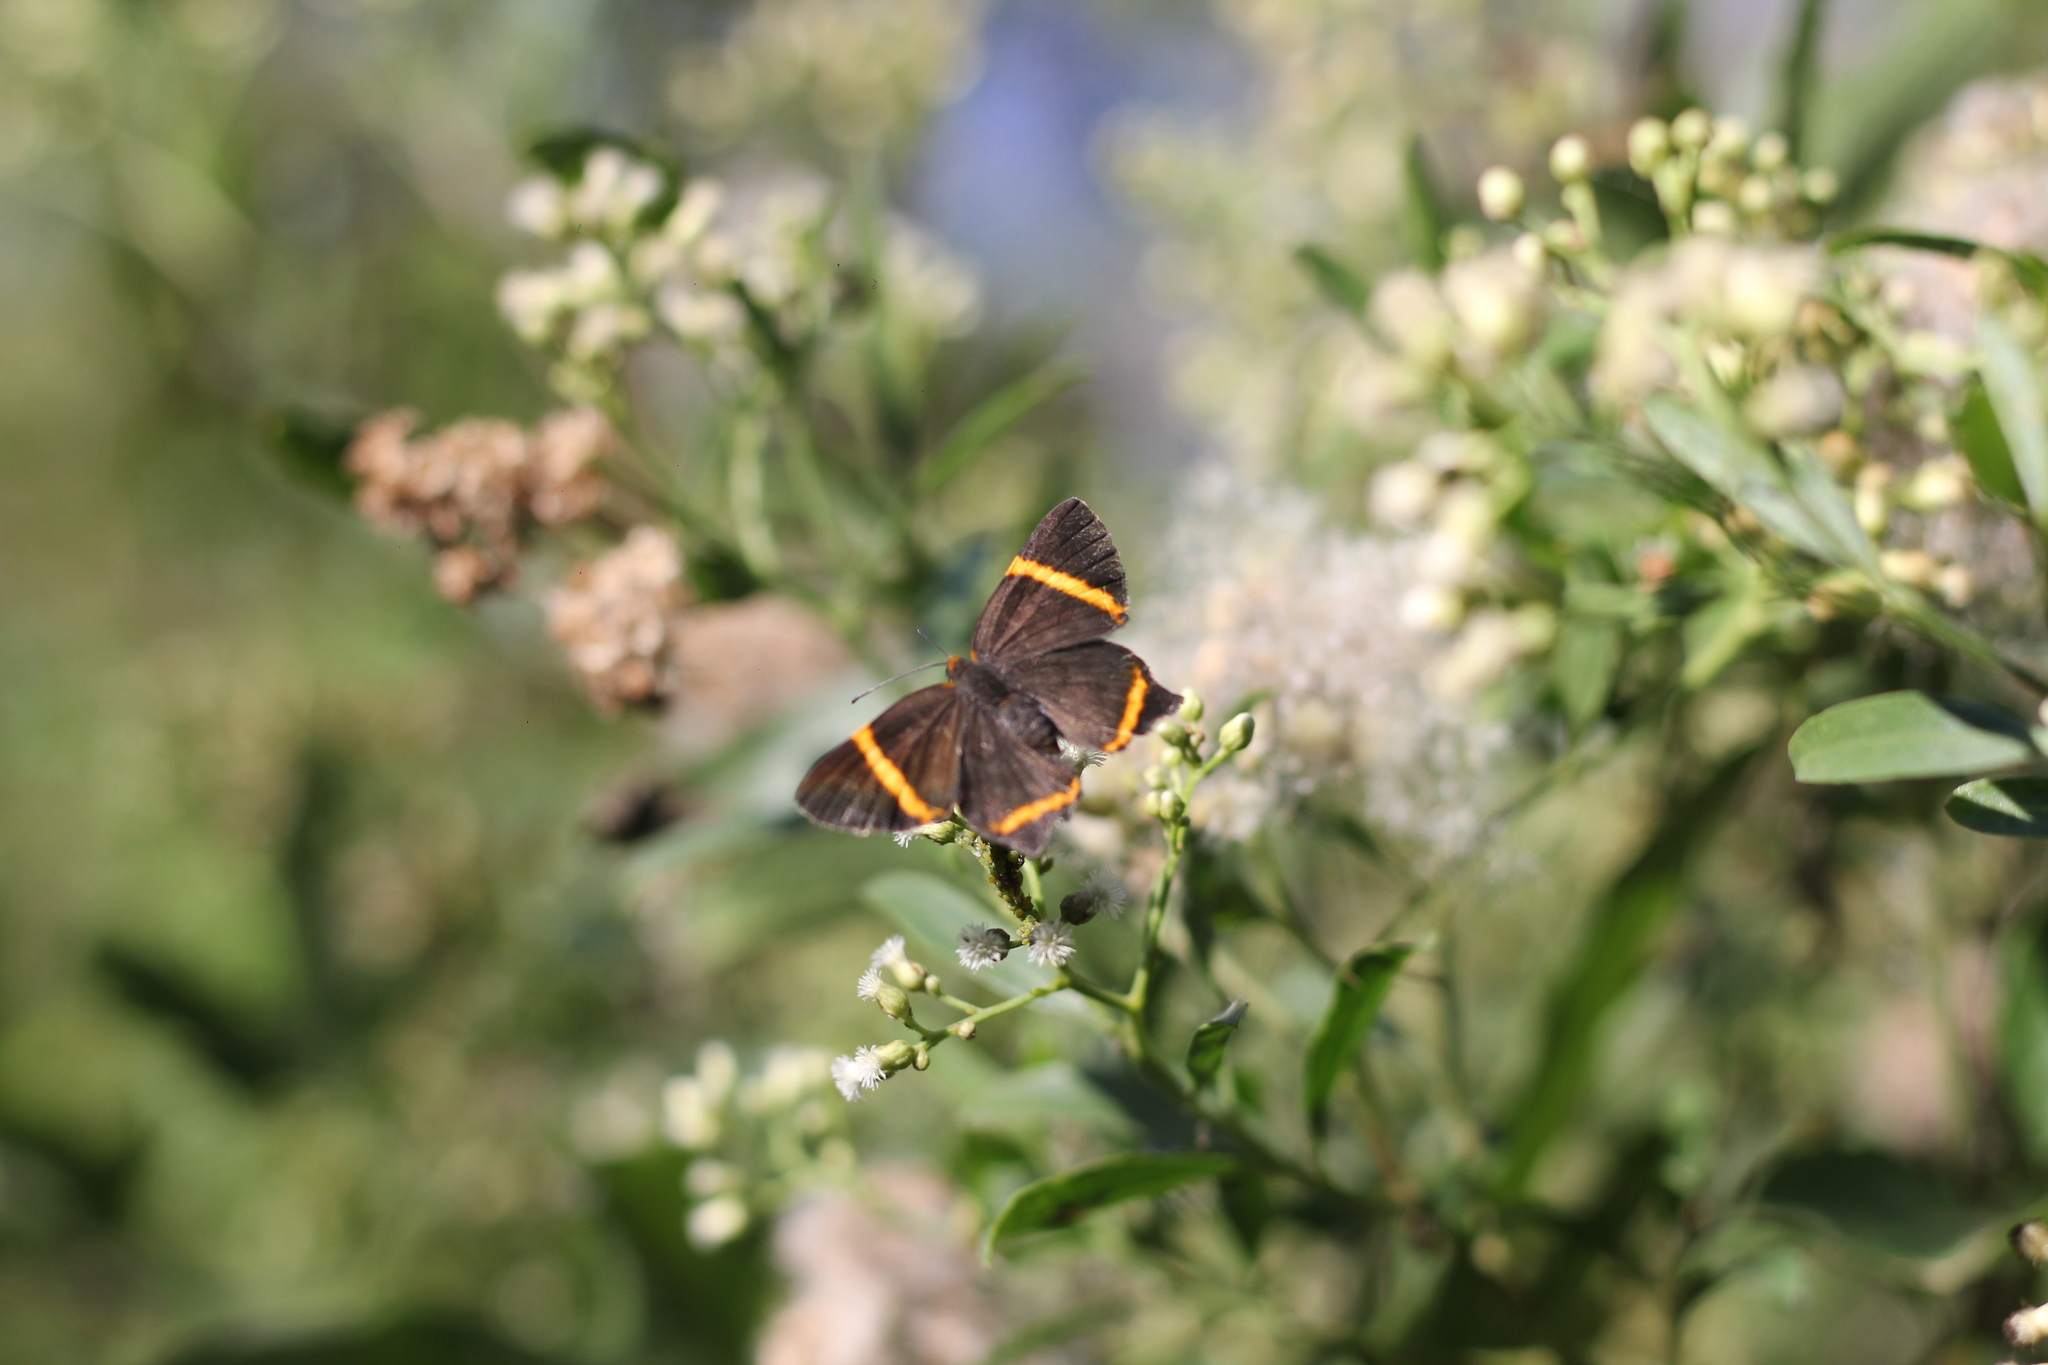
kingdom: Animalia
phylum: Arthropoda
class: Insecta
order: Lepidoptera
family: Riodinidae
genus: Riodina
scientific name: Riodina lysippoides
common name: Little dancer metalmark
